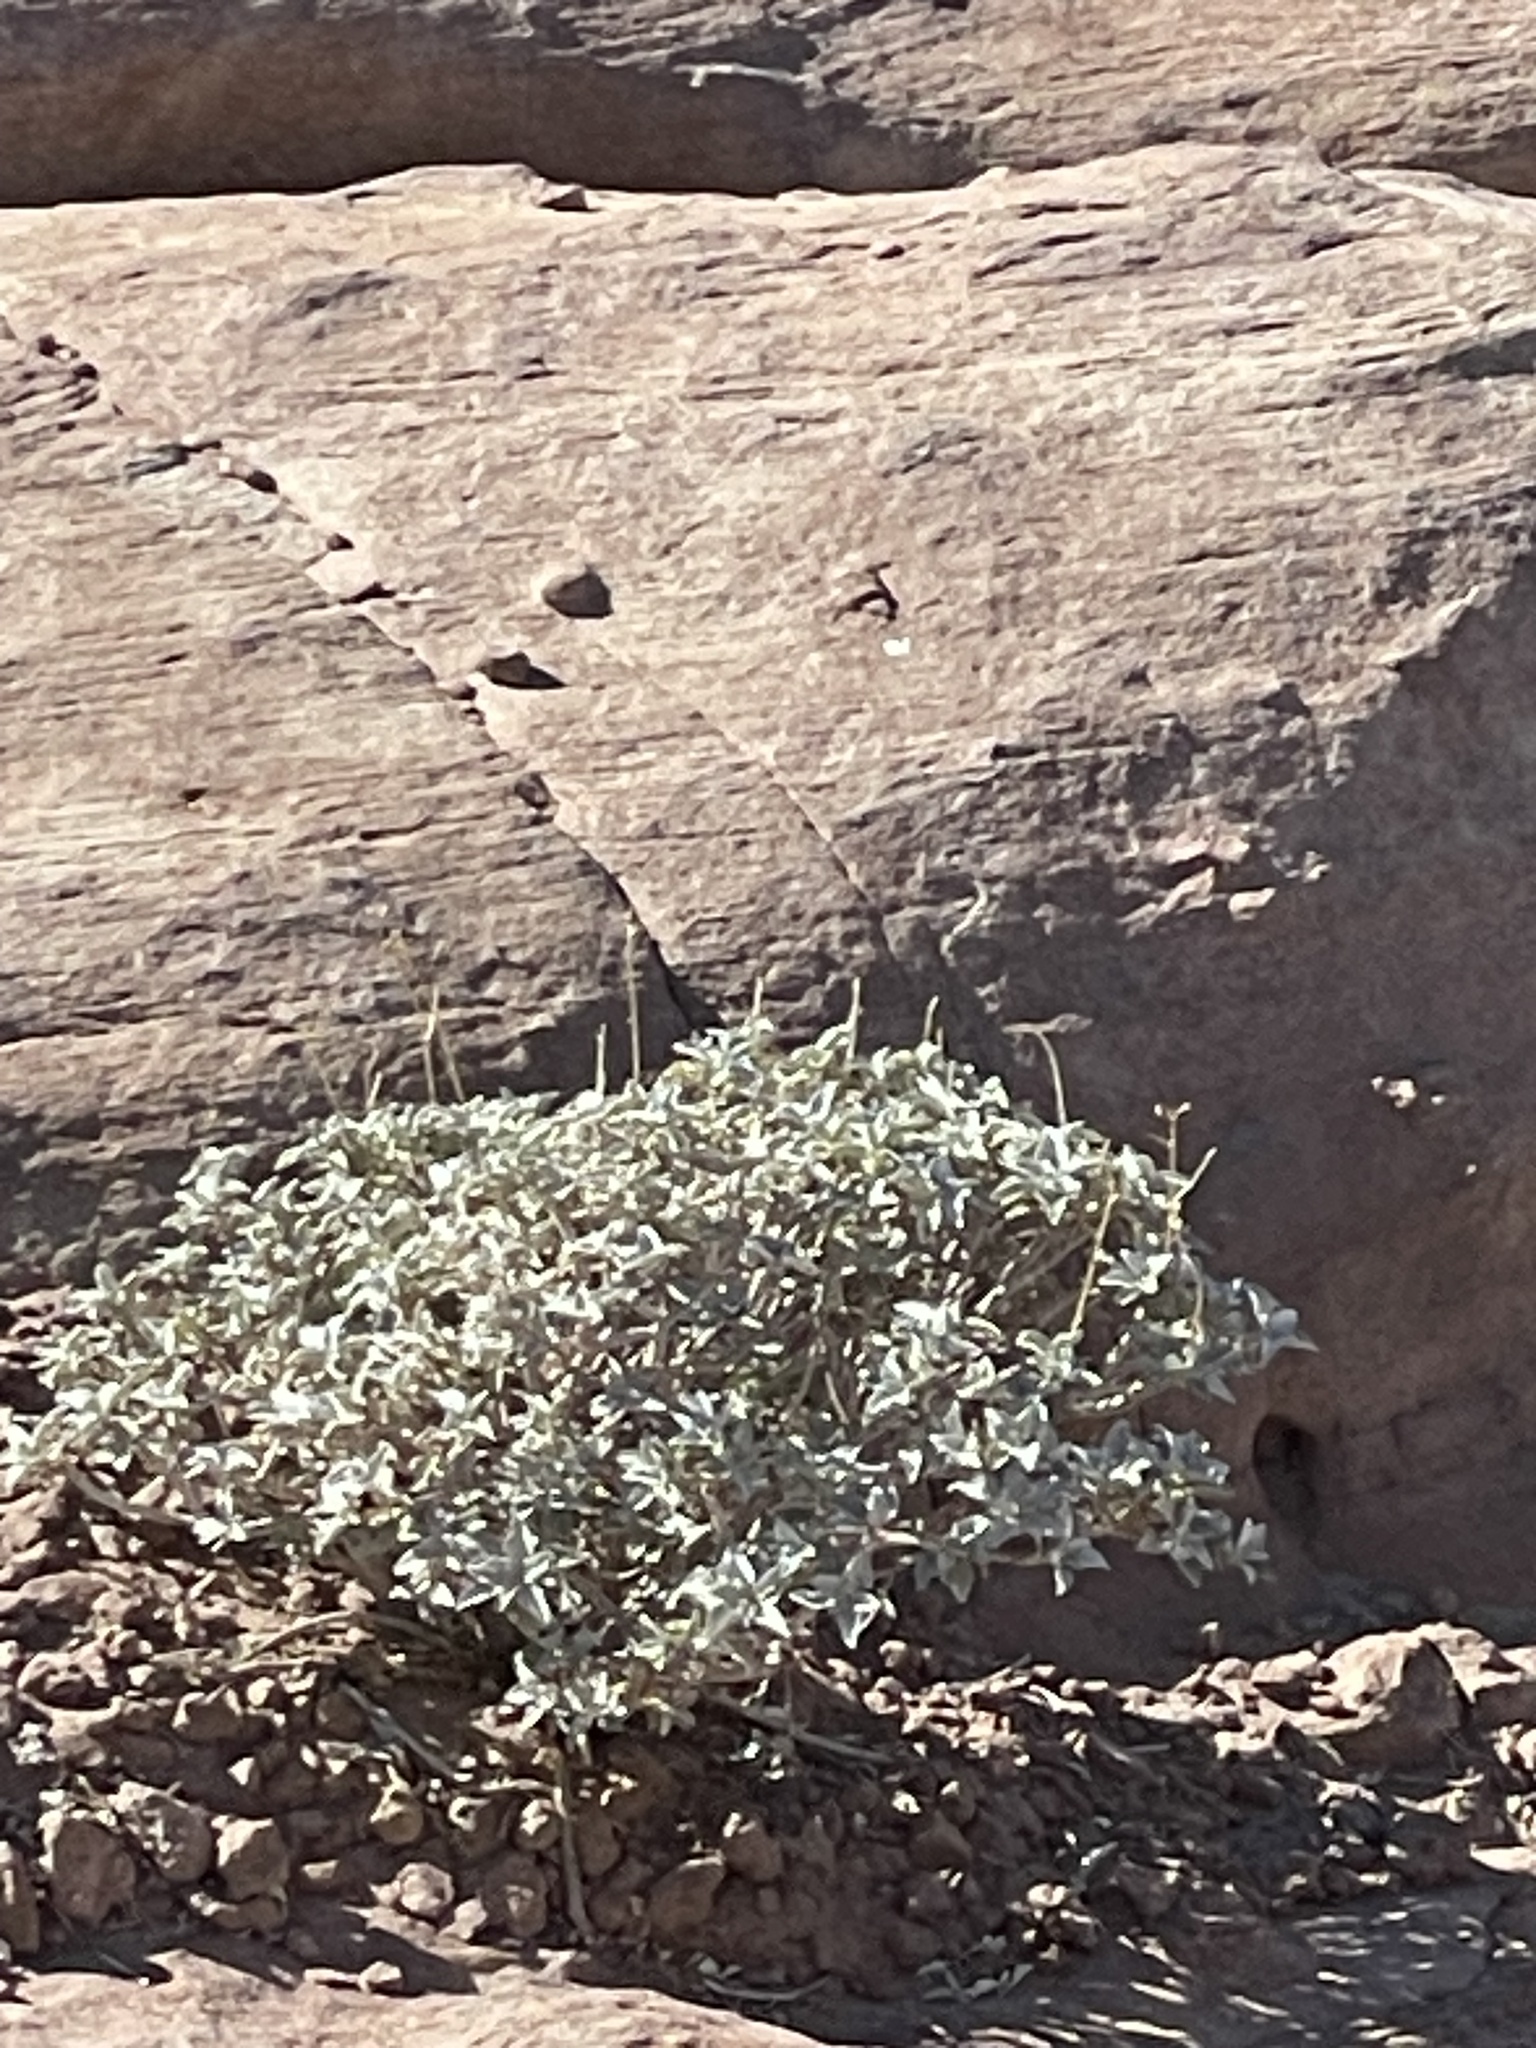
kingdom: Plantae
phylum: Tracheophyta
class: Magnoliopsida
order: Asterales
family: Asteraceae
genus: Encelia
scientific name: Encelia farinosa
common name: Brittlebush
